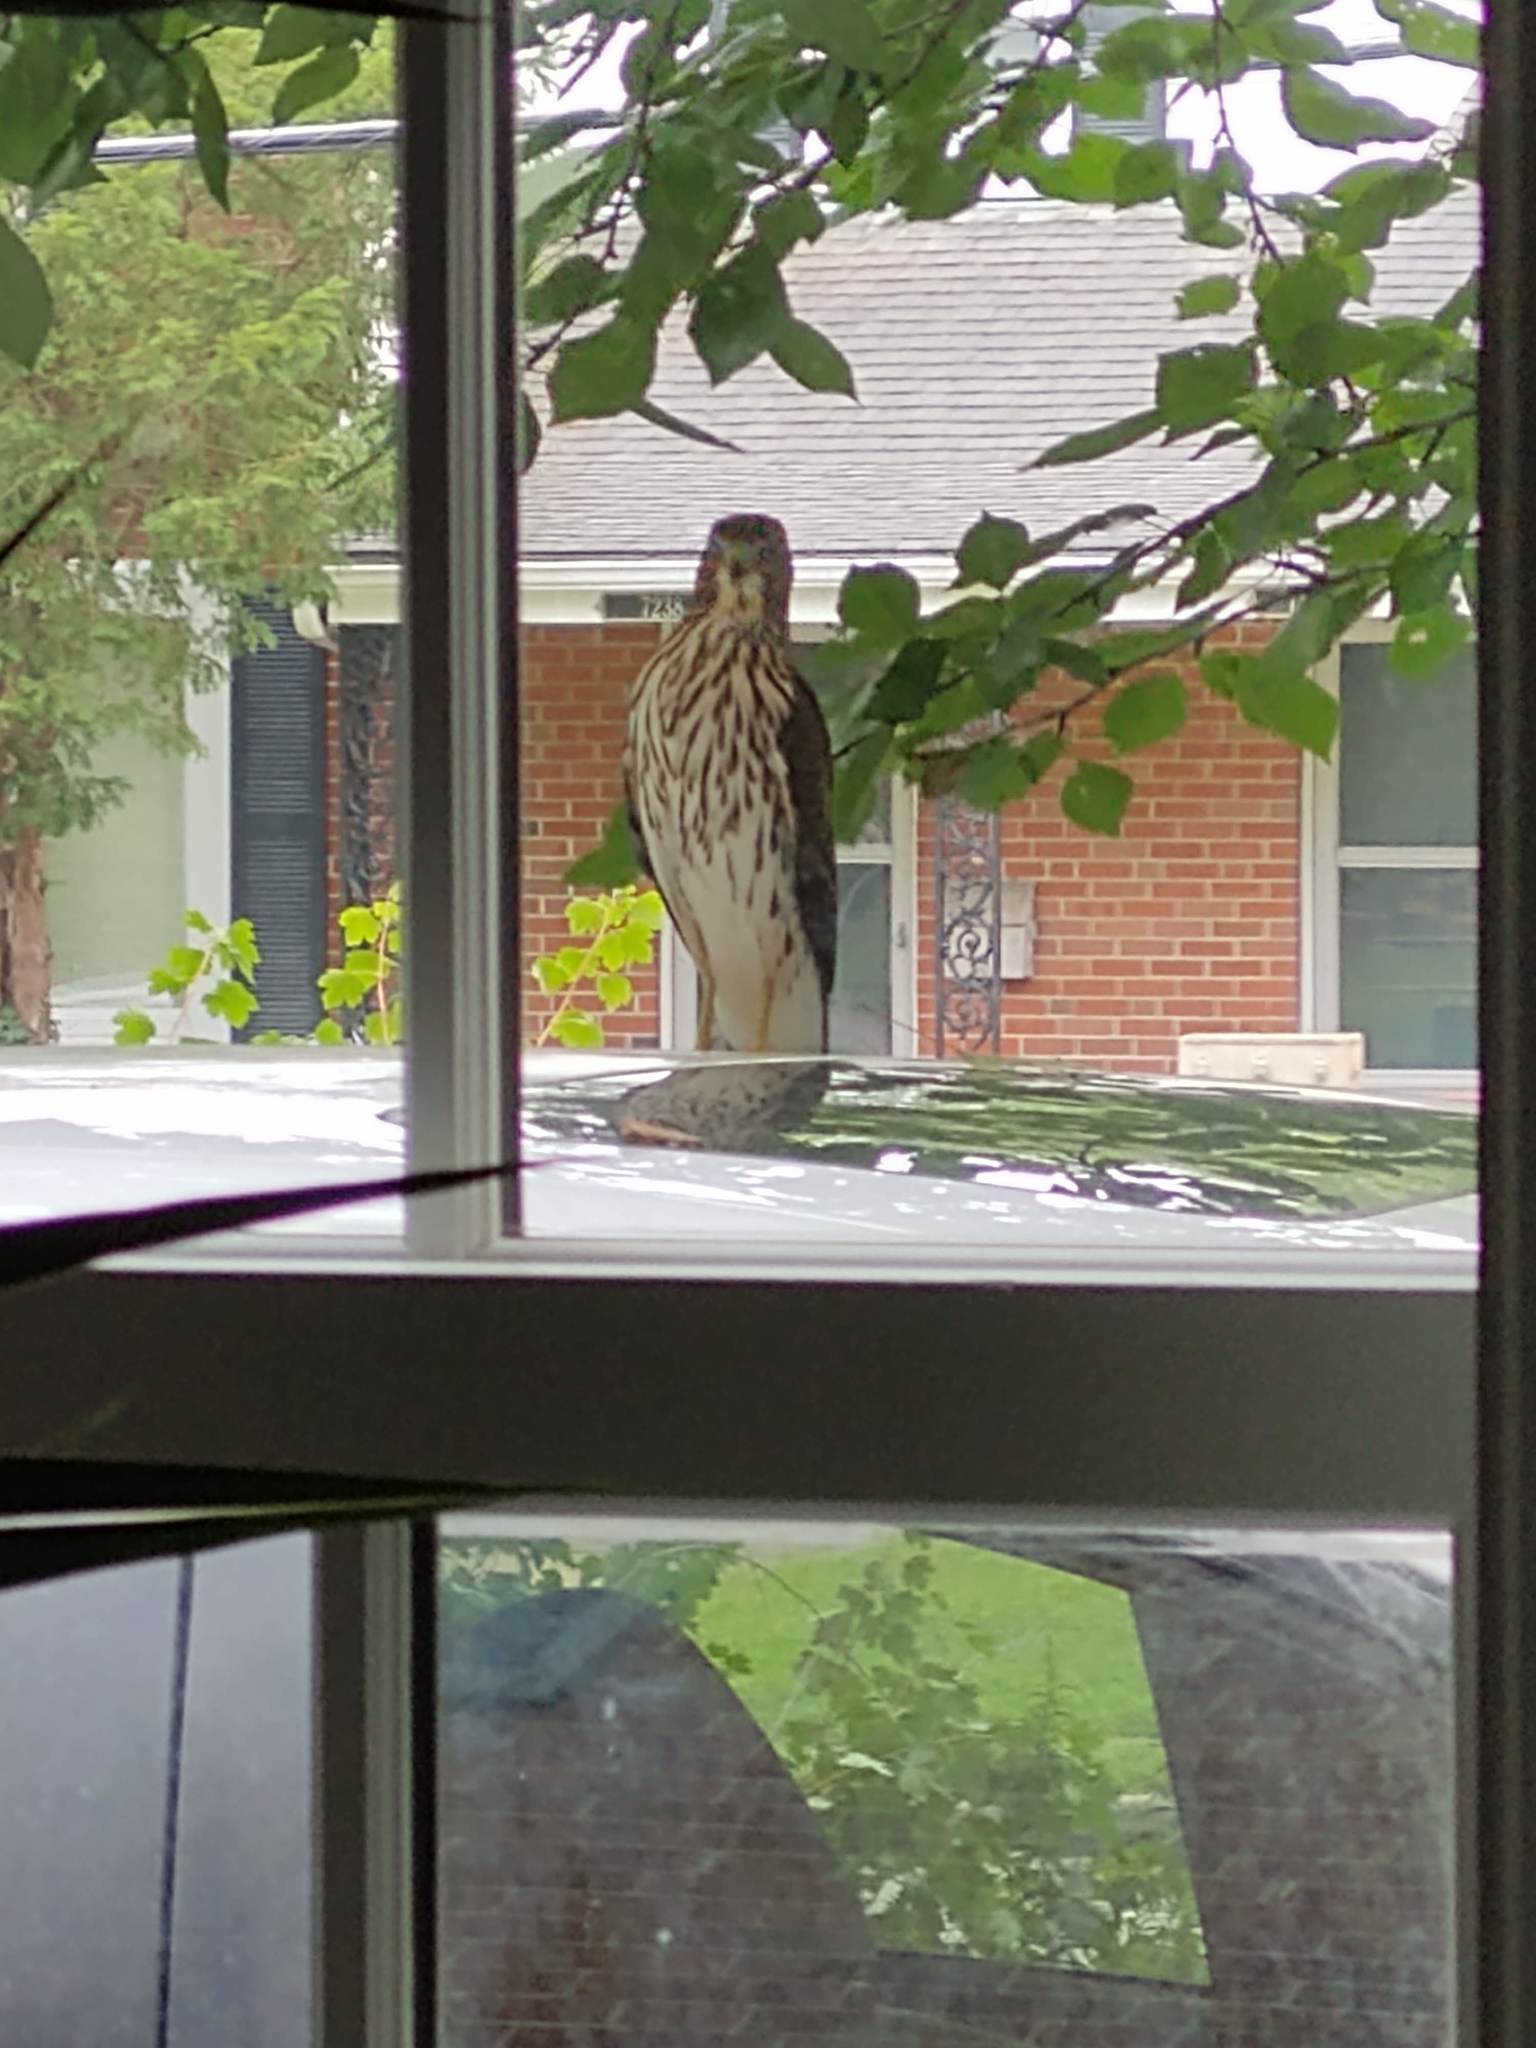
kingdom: Animalia
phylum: Chordata
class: Aves
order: Accipitriformes
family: Accipitridae
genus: Accipiter
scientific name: Accipiter cooperii
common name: Cooper's hawk
